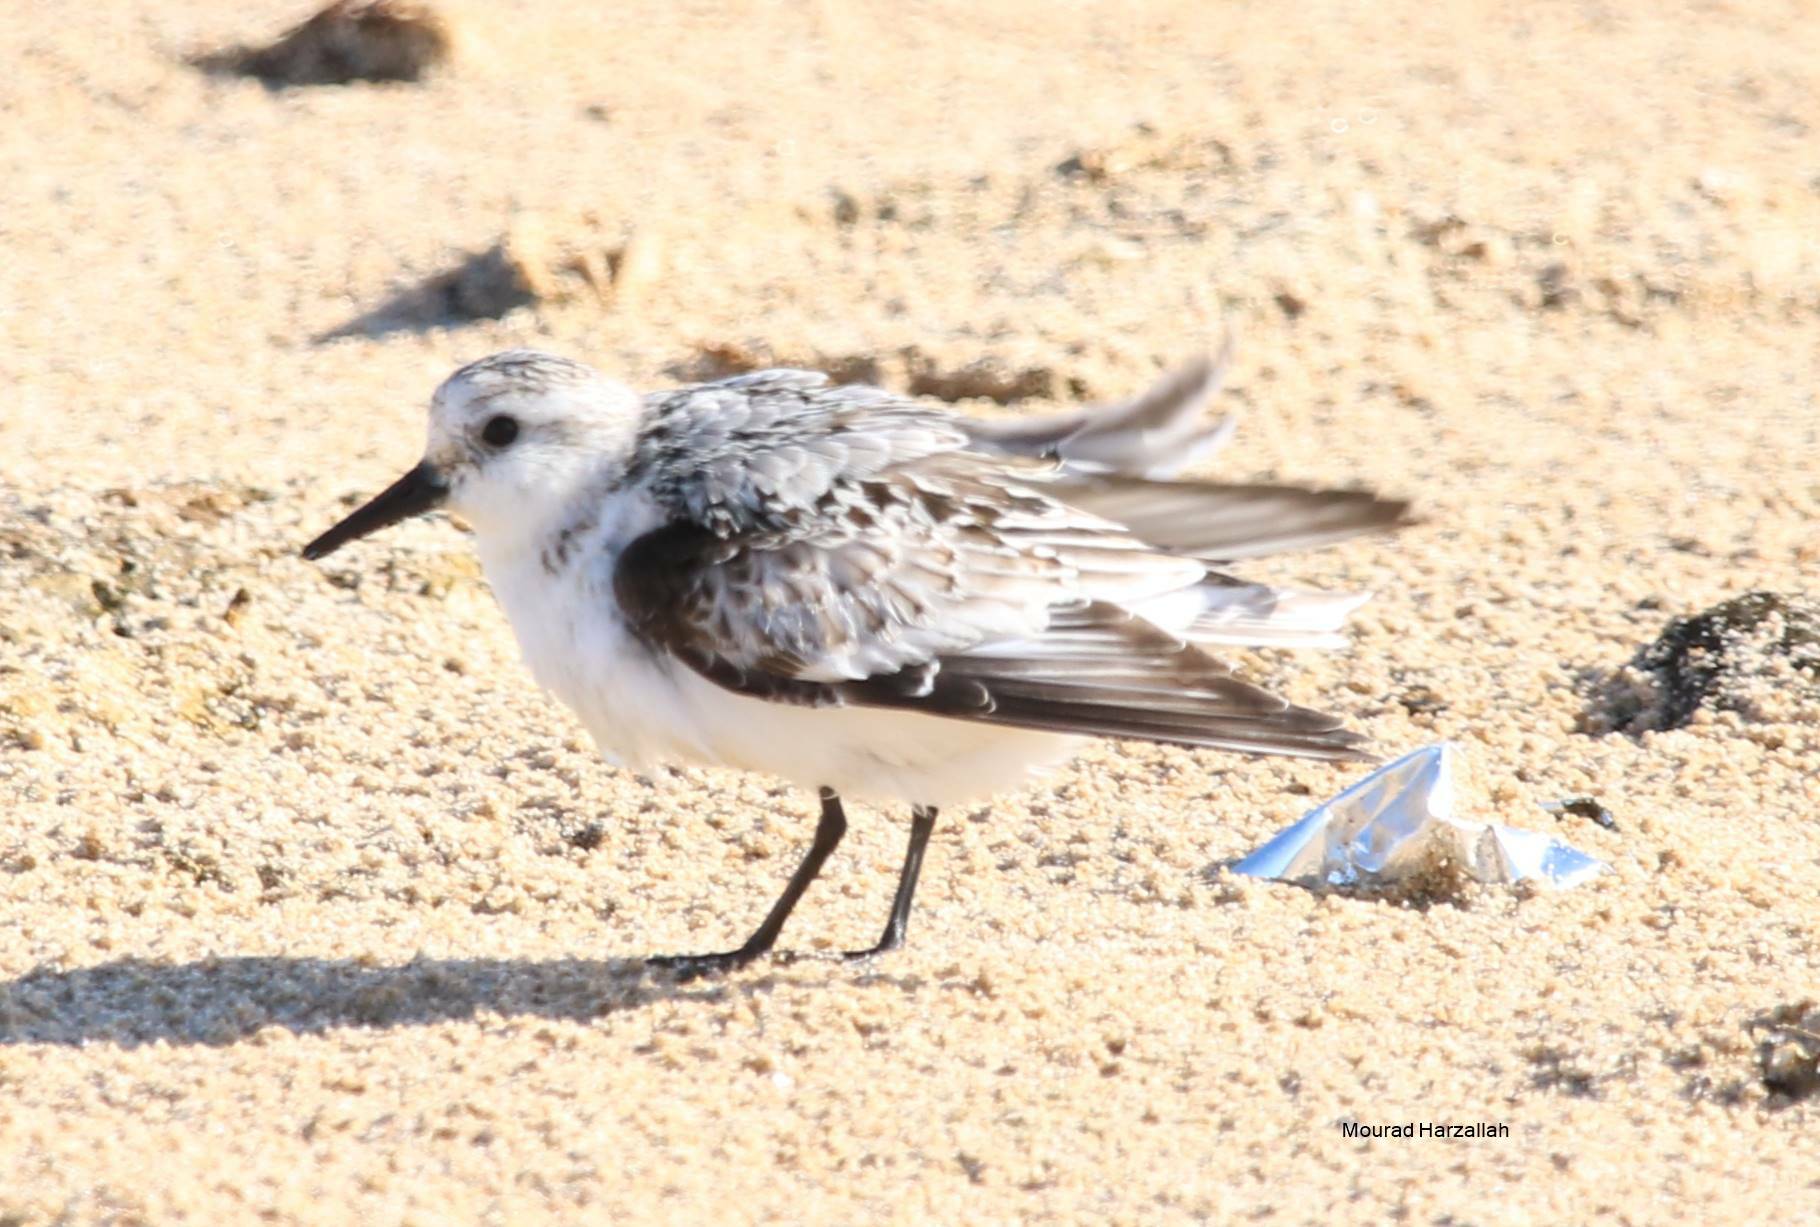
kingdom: Animalia
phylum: Chordata
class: Aves
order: Charadriiformes
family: Scolopacidae
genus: Calidris
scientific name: Calidris alba
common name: Sanderling
